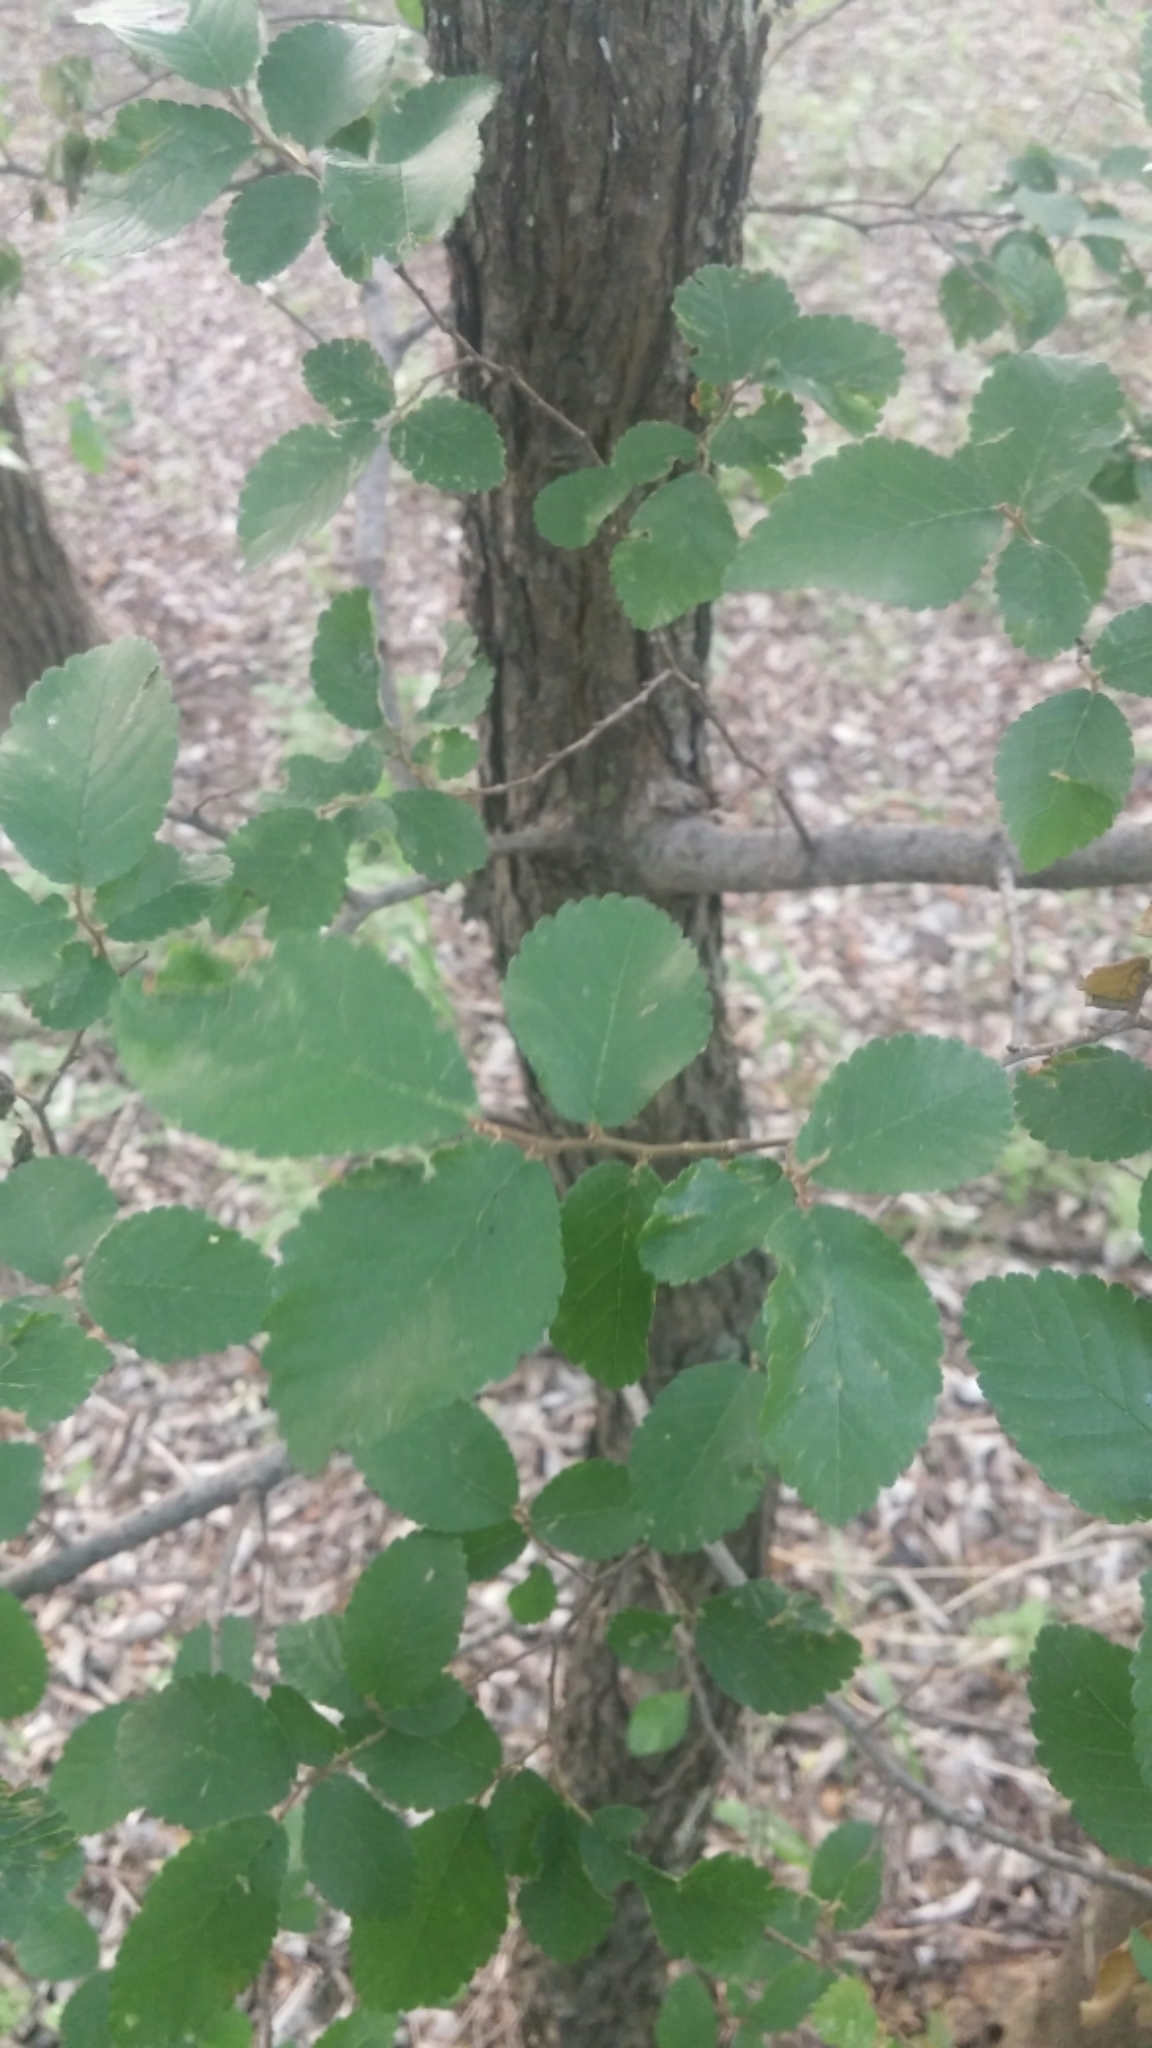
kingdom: Plantae
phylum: Tracheophyta
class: Magnoliopsida
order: Rosales
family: Ulmaceae
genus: Ulmus
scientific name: Ulmus crassifolia
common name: Basket elm
